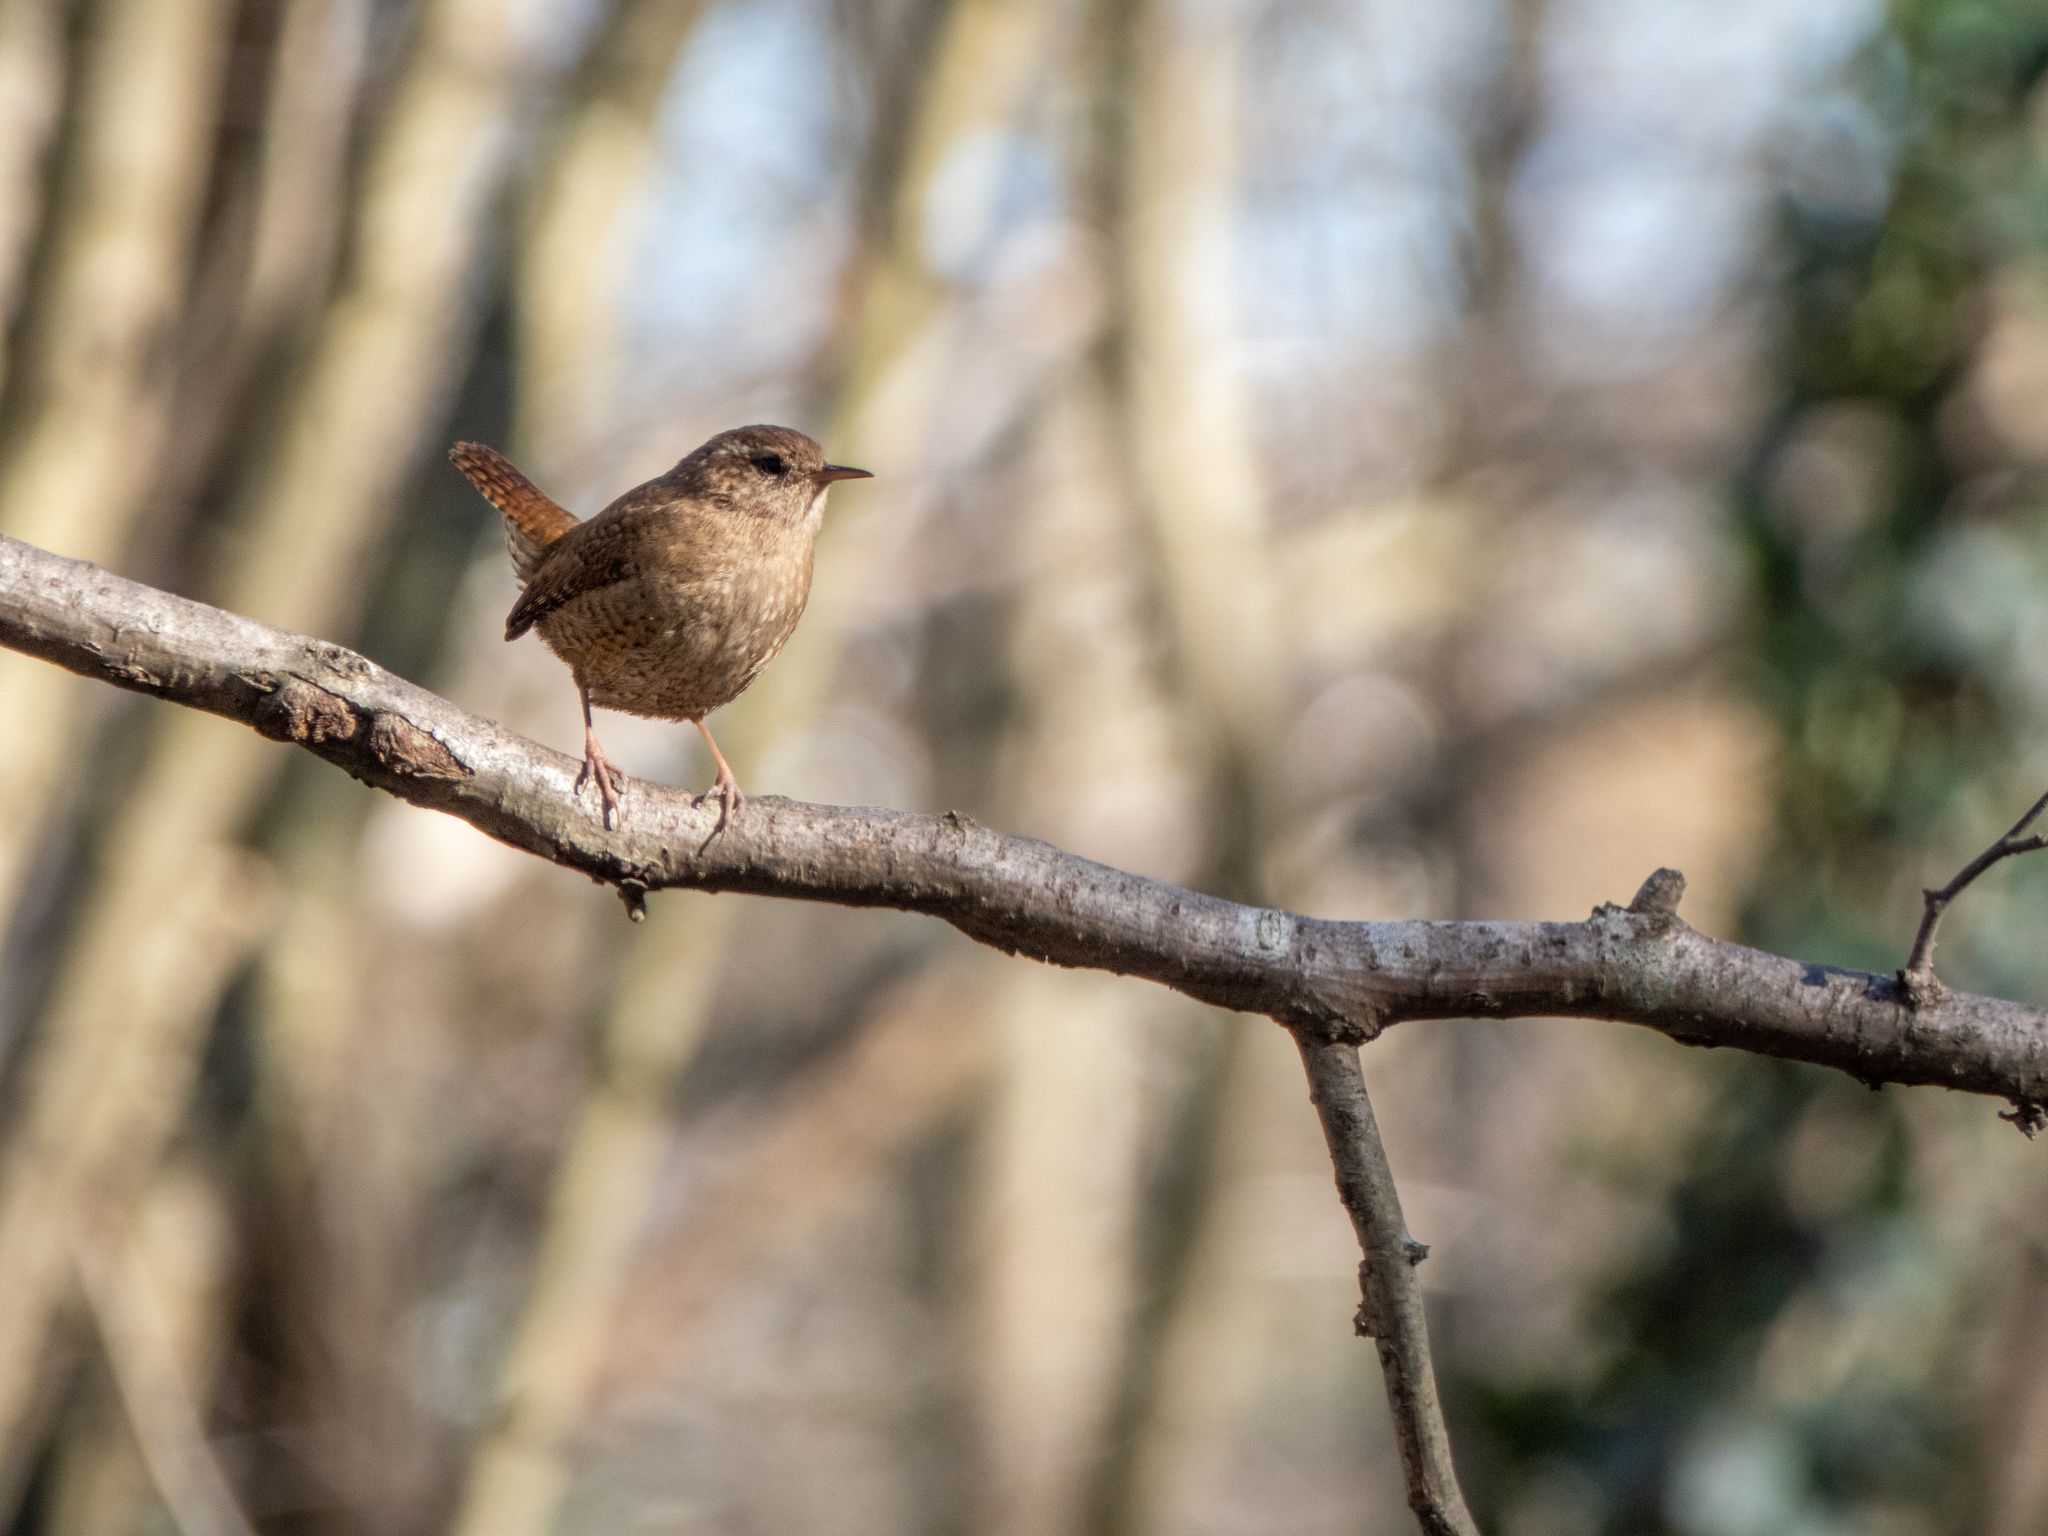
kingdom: Animalia
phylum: Chordata
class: Aves
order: Passeriformes
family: Troglodytidae
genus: Troglodytes
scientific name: Troglodytes troglodytes
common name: Eurasian wren
